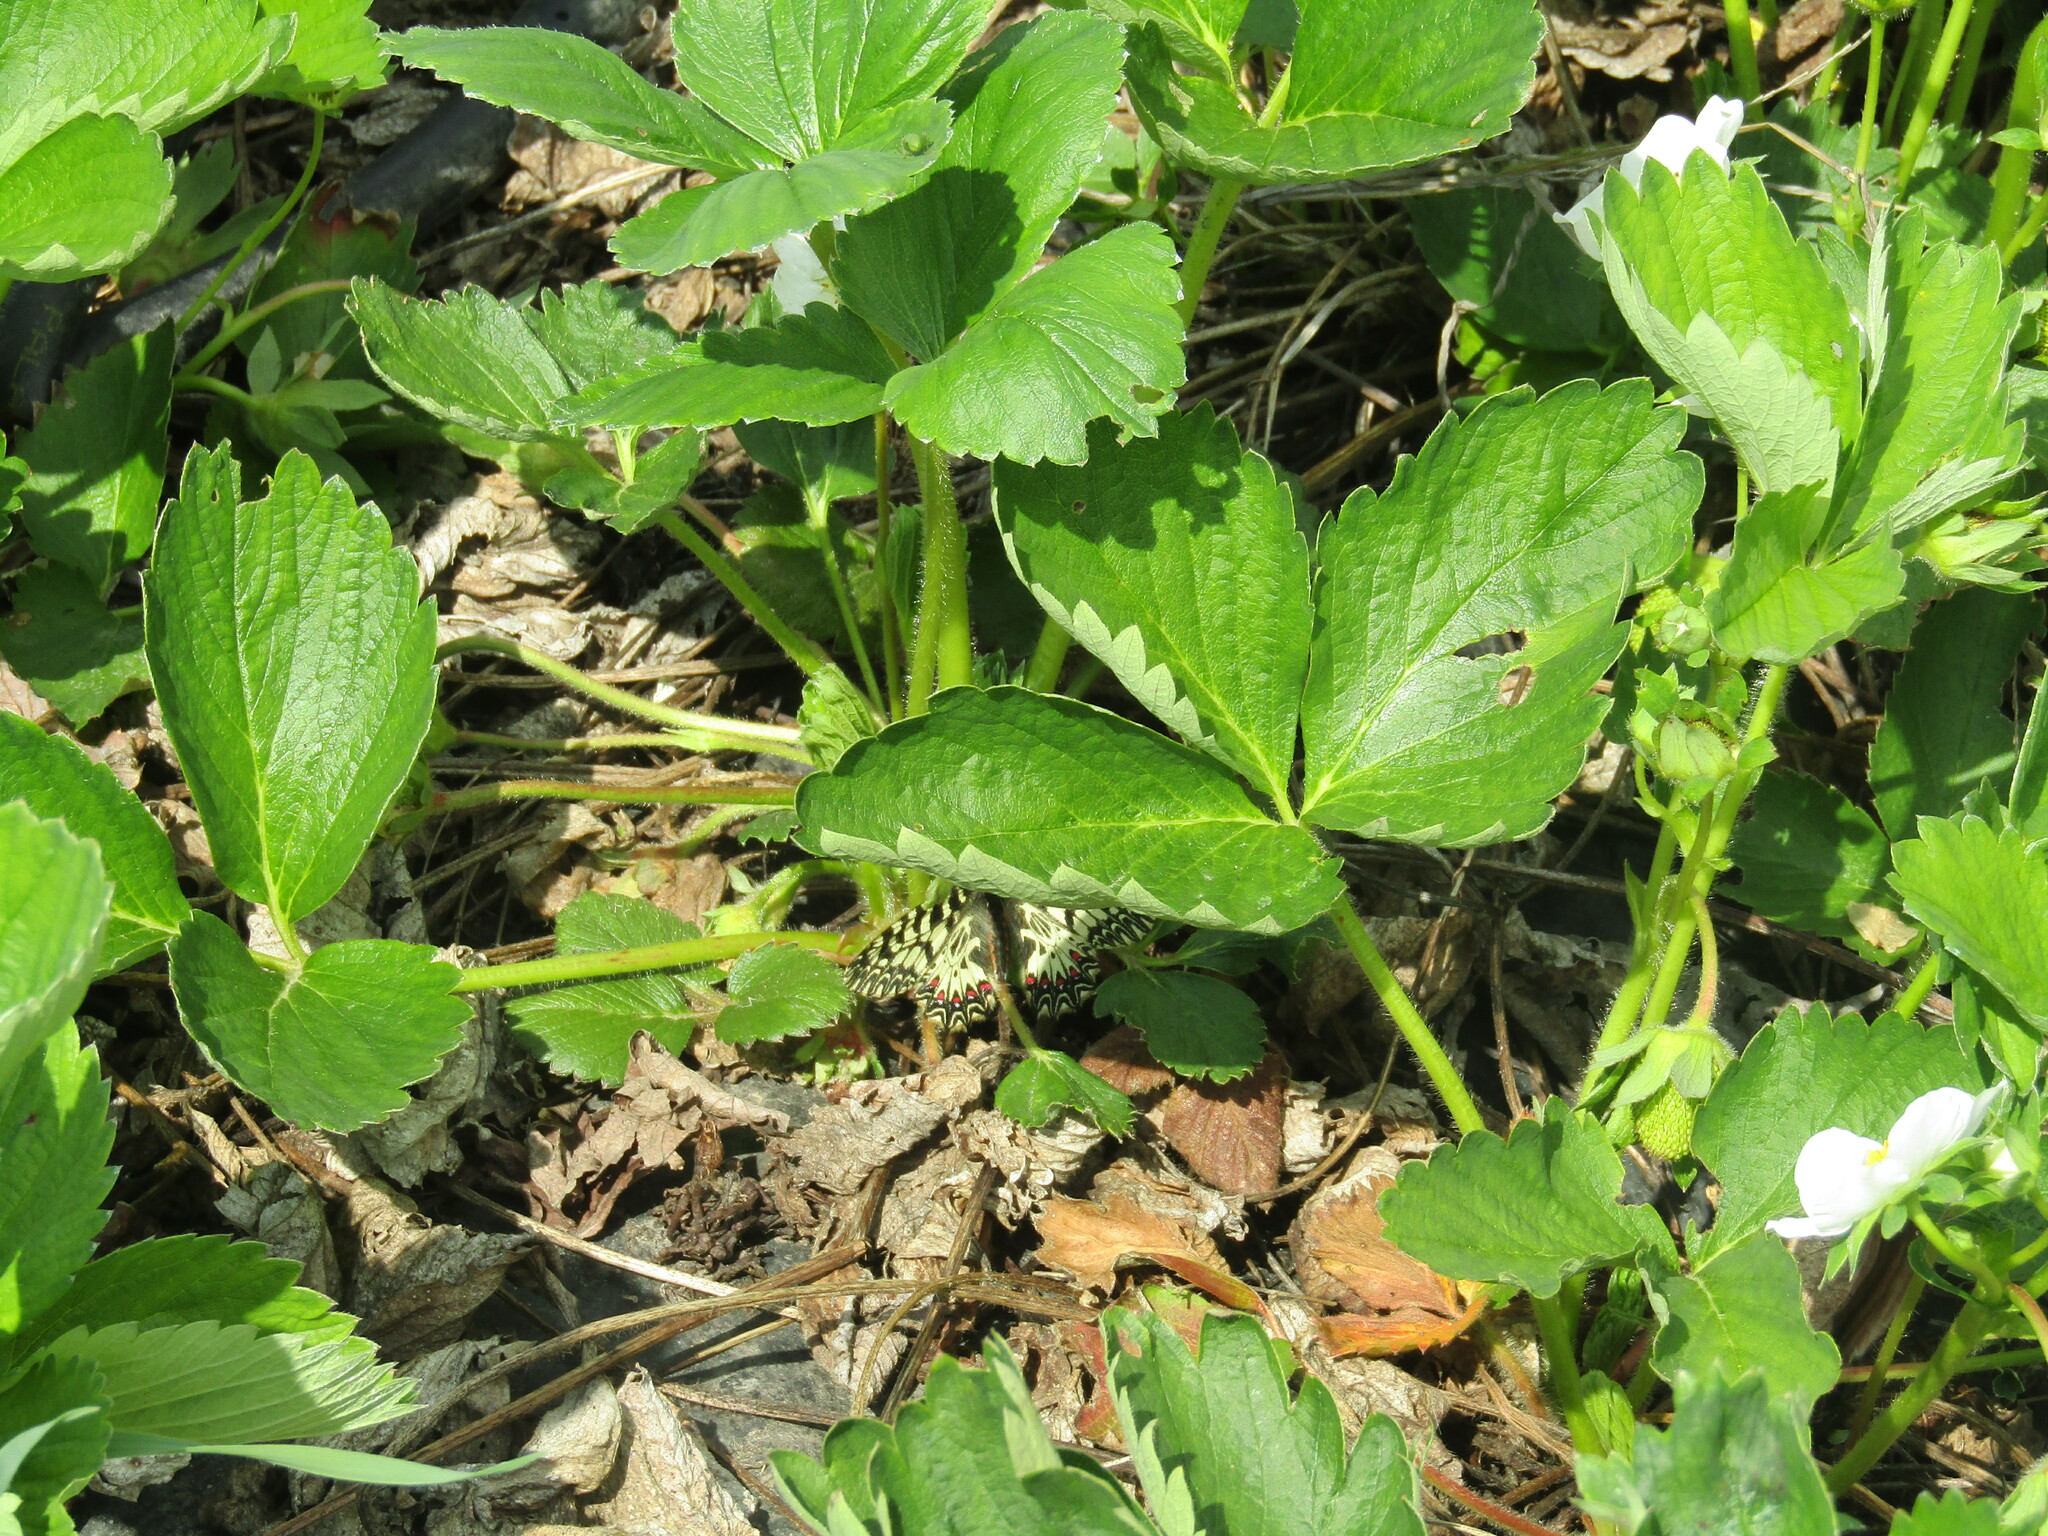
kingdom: Animalia
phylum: Arthropoda
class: Insecta
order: Lepidoptera
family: Papilionidae
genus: Zerynthia
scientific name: Zerynthia polyxena
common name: Southern festoon
